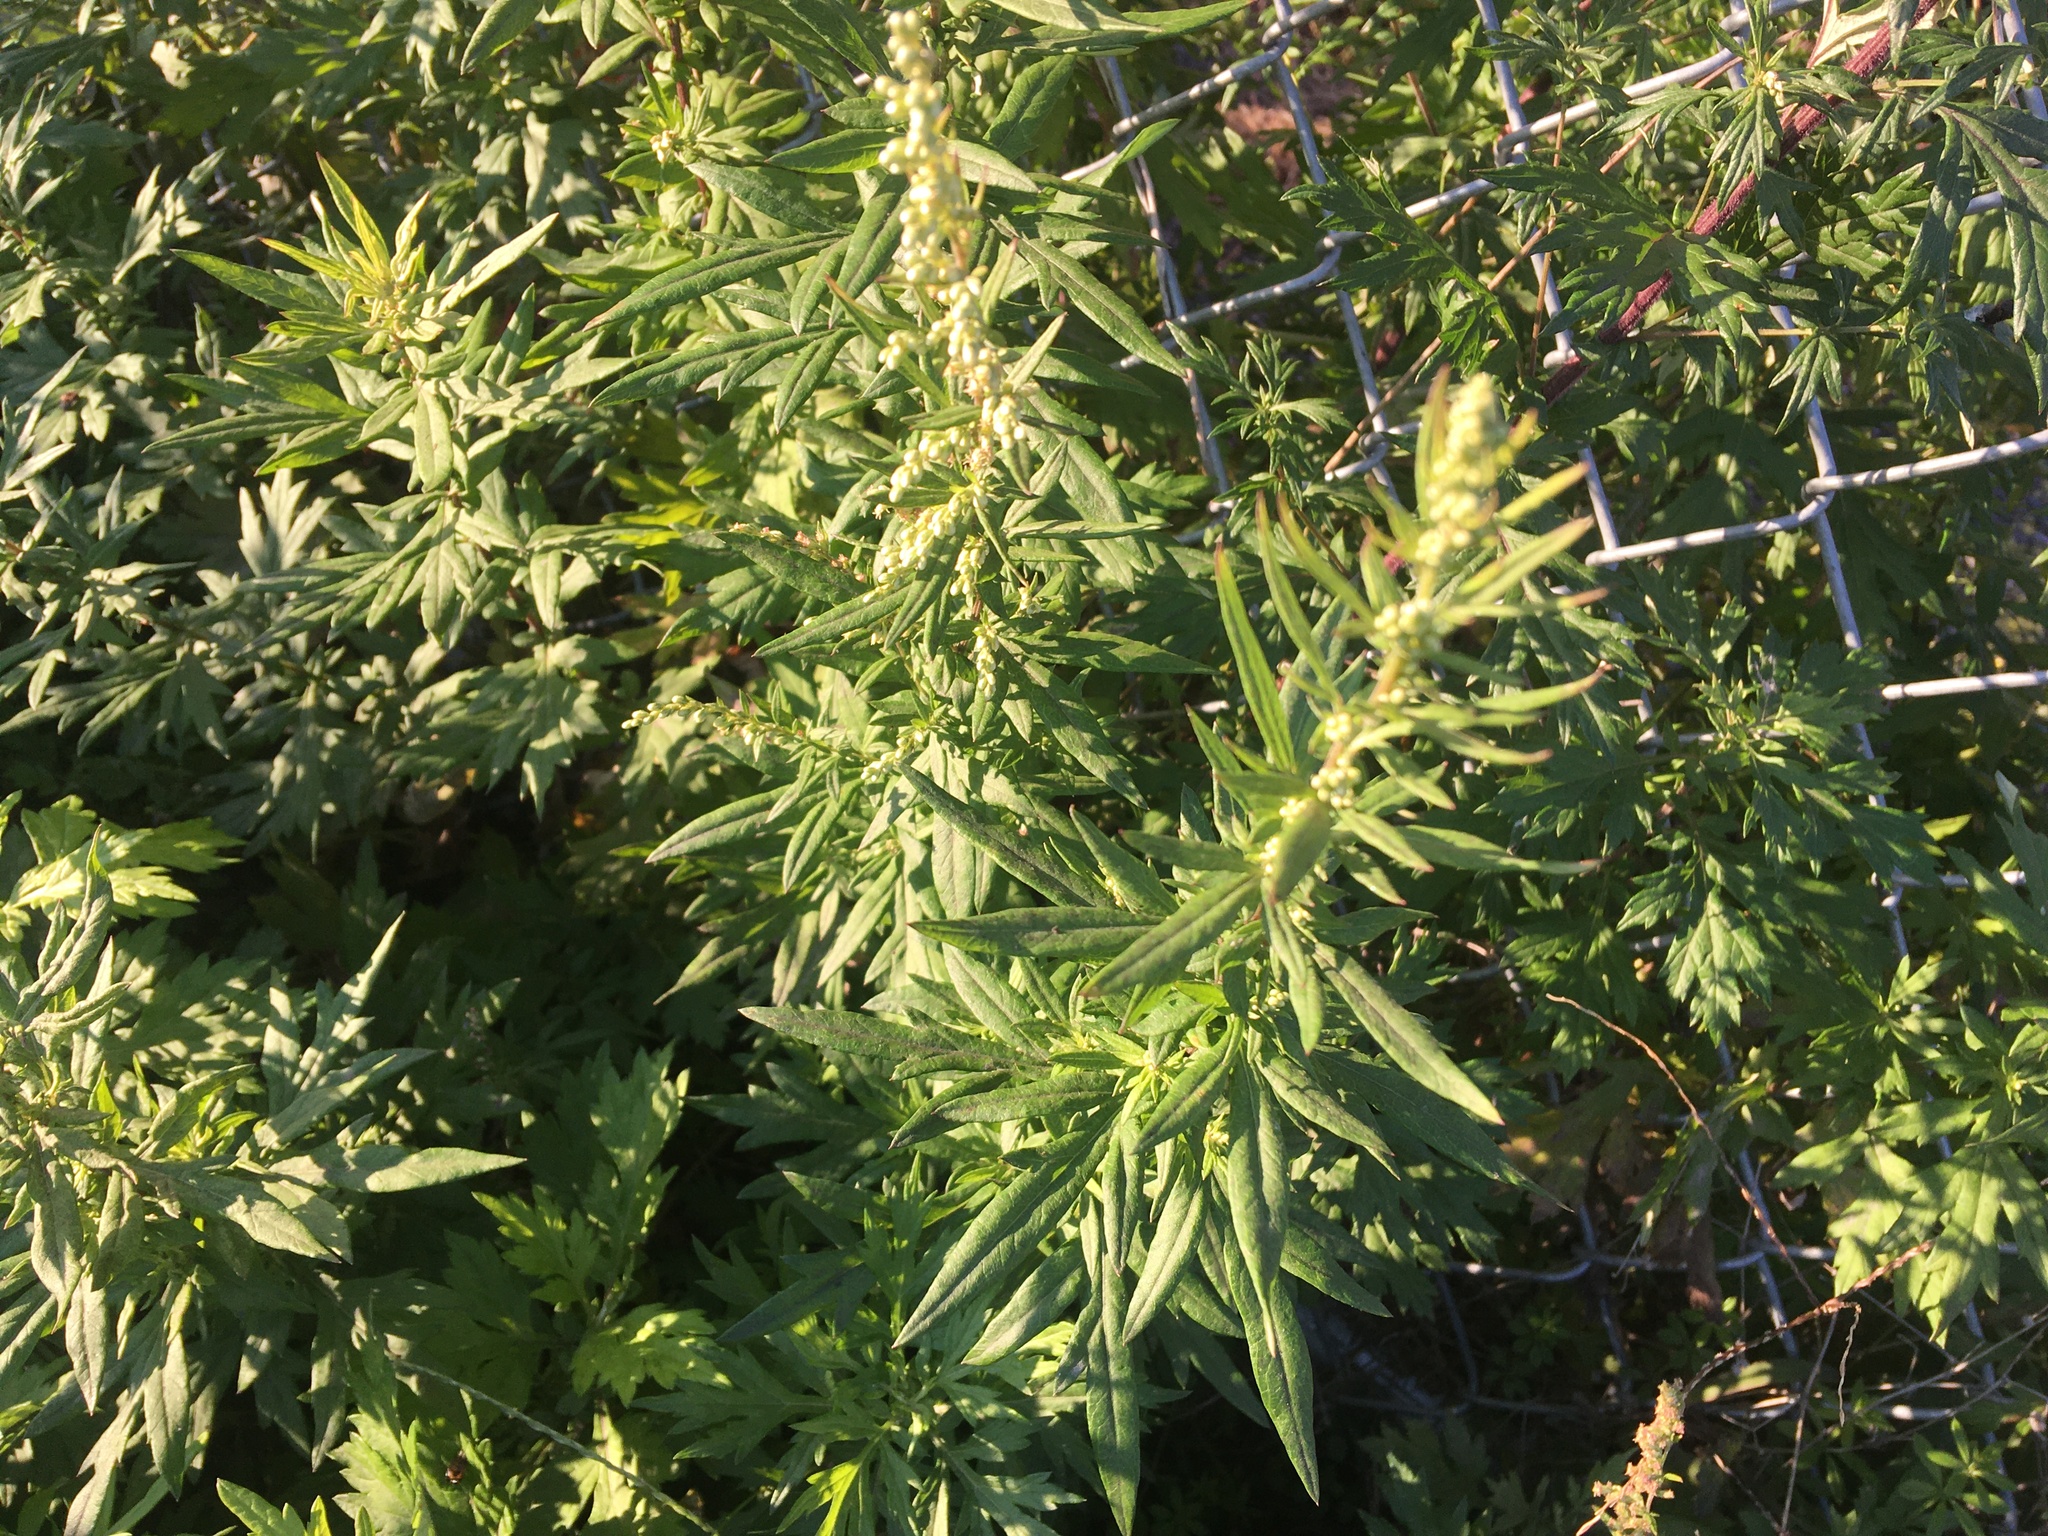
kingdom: Plantae
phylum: Tracheophyta
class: Magnoliopsida
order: Asterales
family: Asteraceae
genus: Artemisia
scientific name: Artemisia vulgaris
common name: Mugwort
